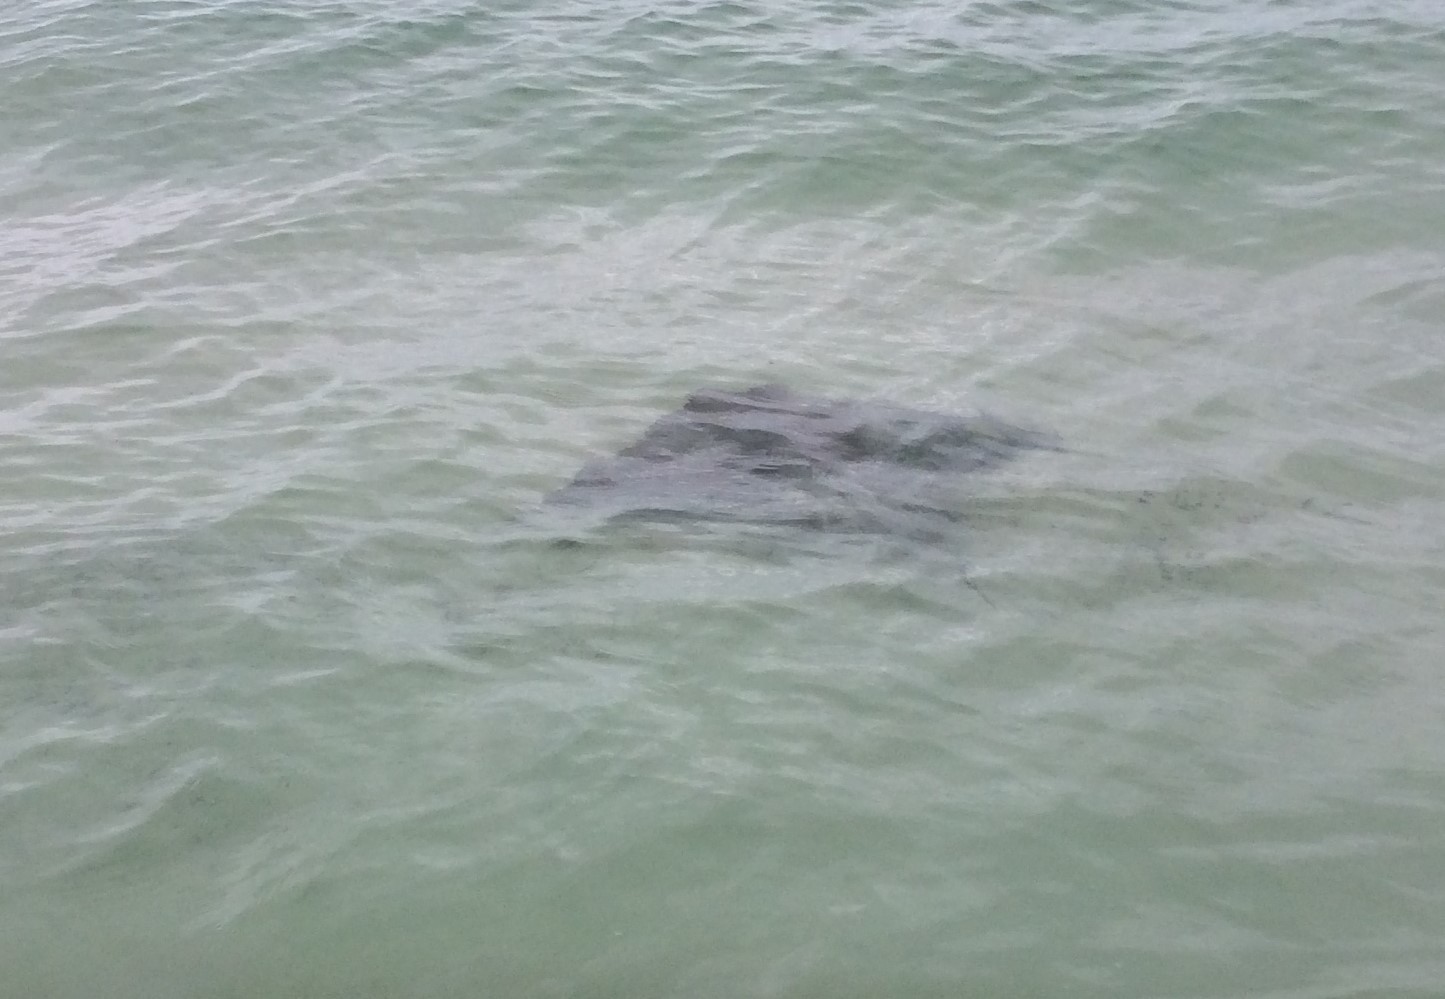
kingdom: Animalia
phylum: Chordata
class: Elasmobranchii
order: Myliobatiformes
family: Myliobatidae
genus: Myliobatis
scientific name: Myliobatis tenuicaudatus
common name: Eagle ray
